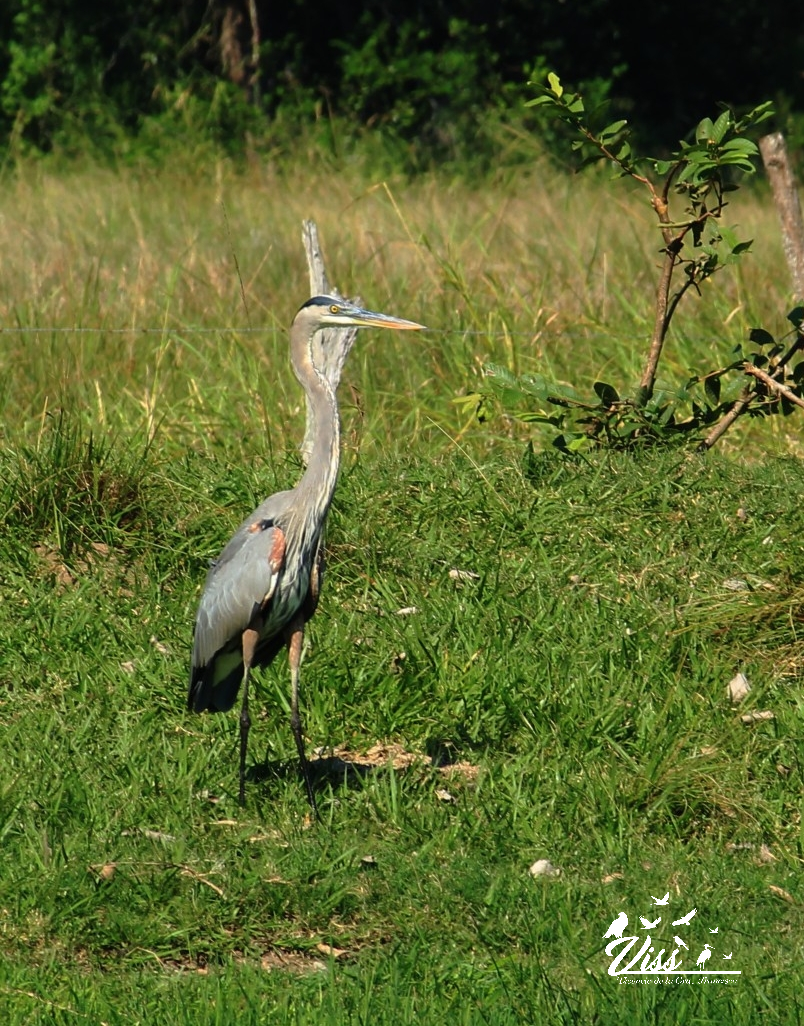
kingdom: Animalia
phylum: Chordata
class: Aves
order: Pelecaniformes
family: Ardeidae
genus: Ardea
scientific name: Ardea herodias
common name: Great blue heron
